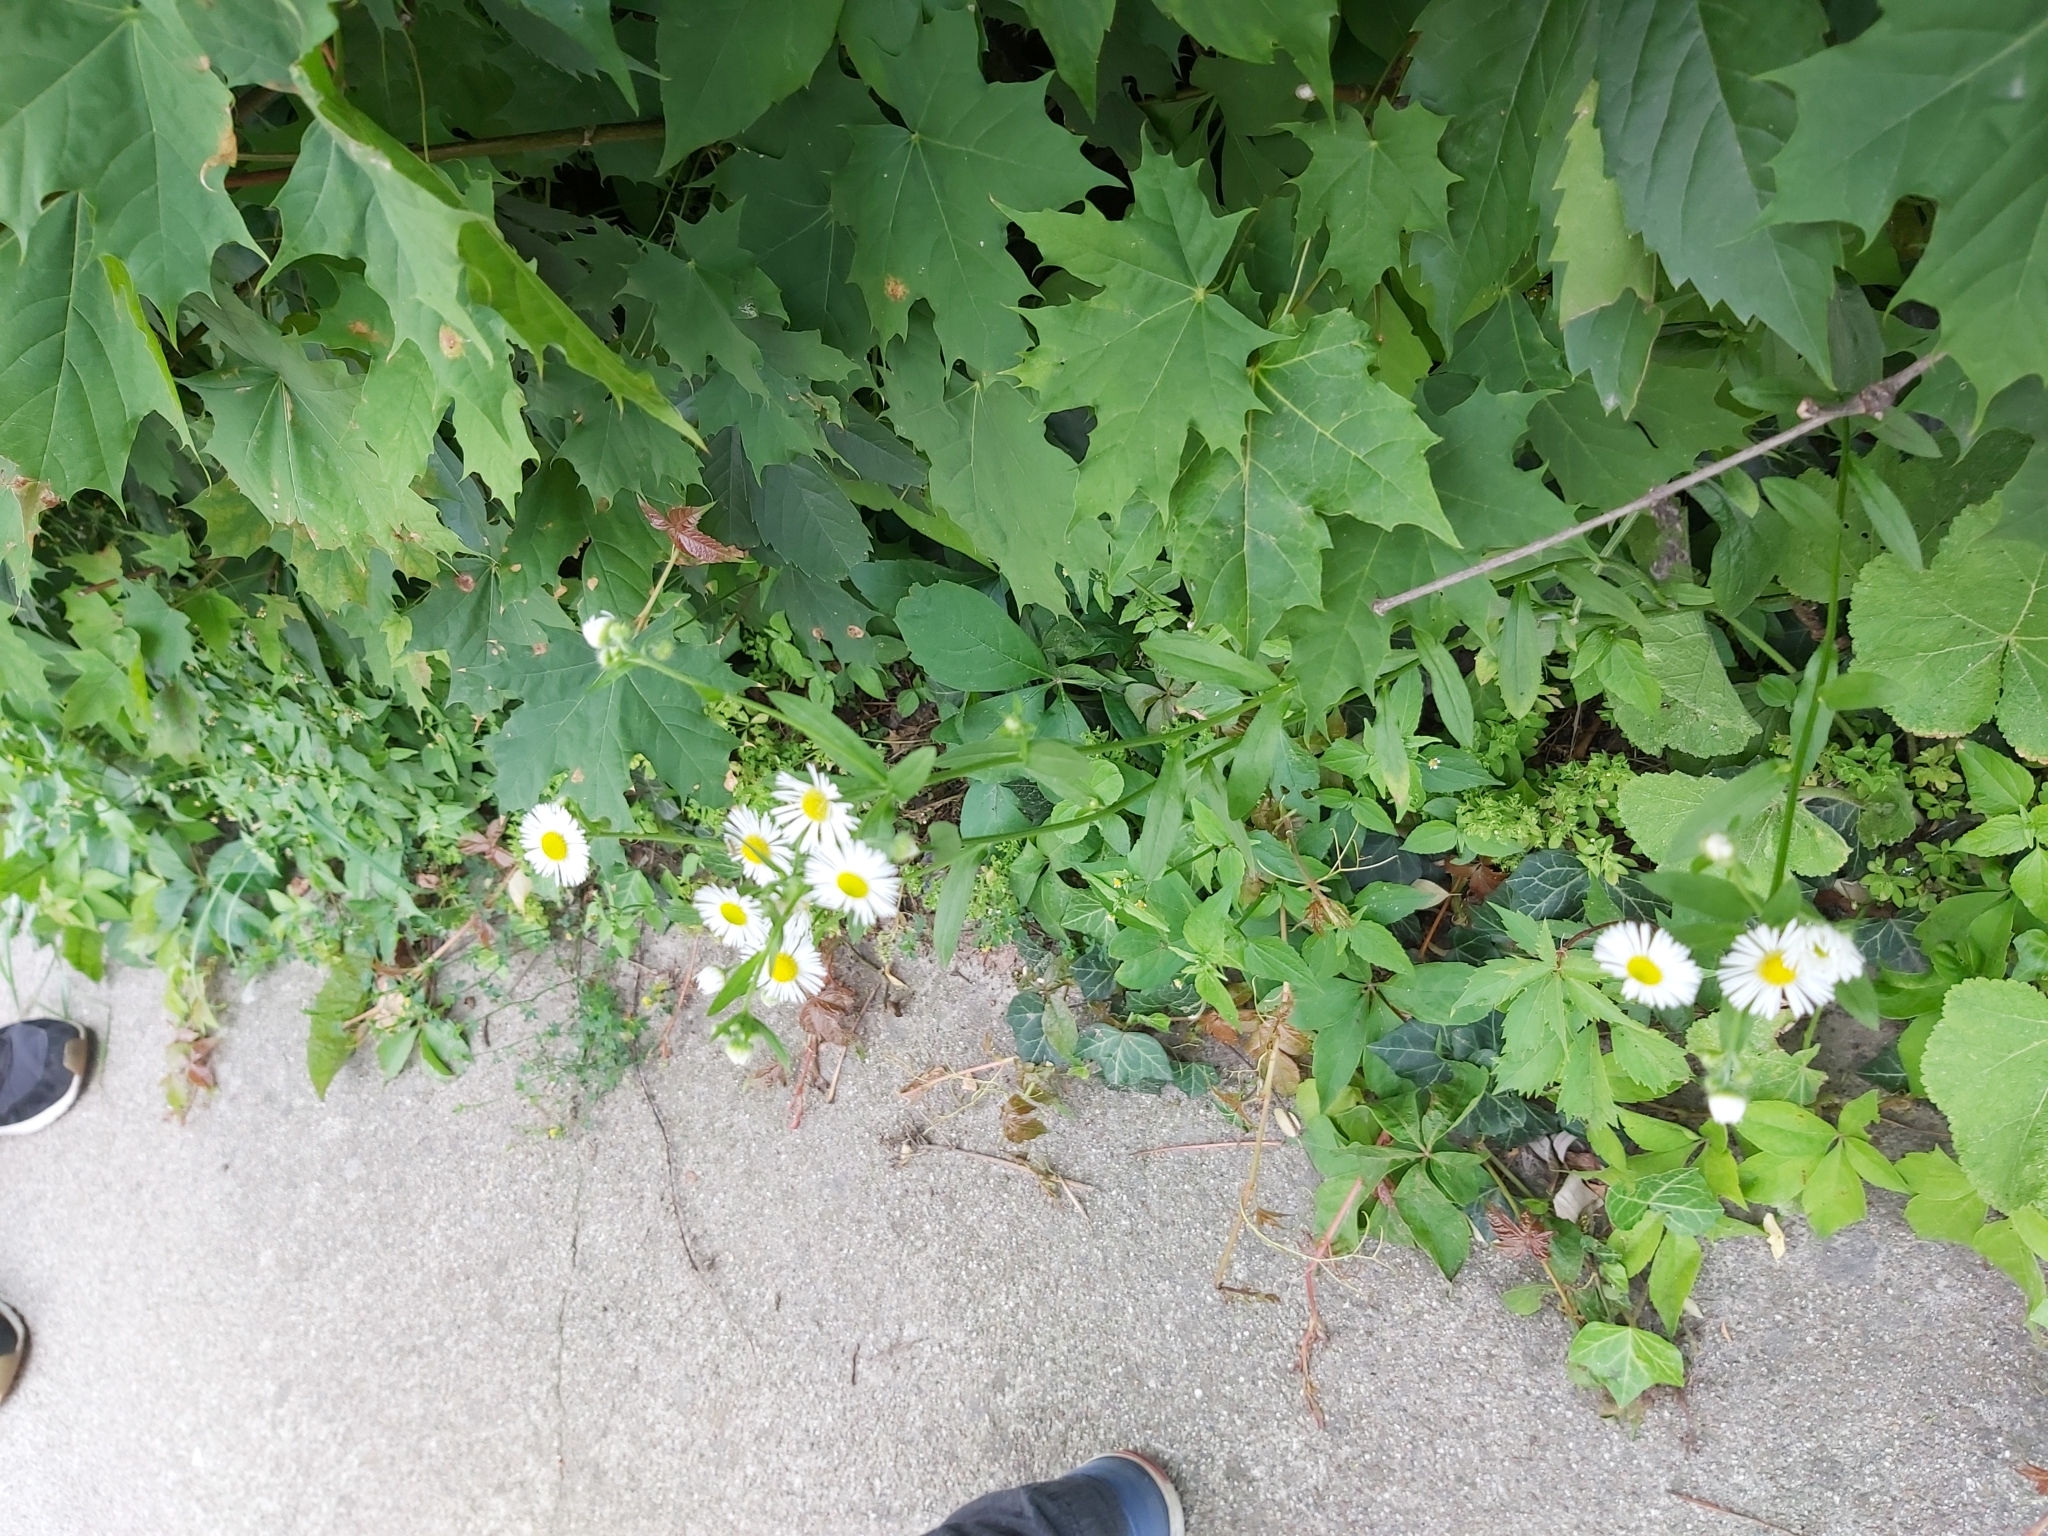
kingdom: Plantae
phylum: Tracheophyta
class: Magnoliopsida
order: Asterales
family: Asteraceae
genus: Erigeron
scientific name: Erigeron annuus
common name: Tall fleabane
